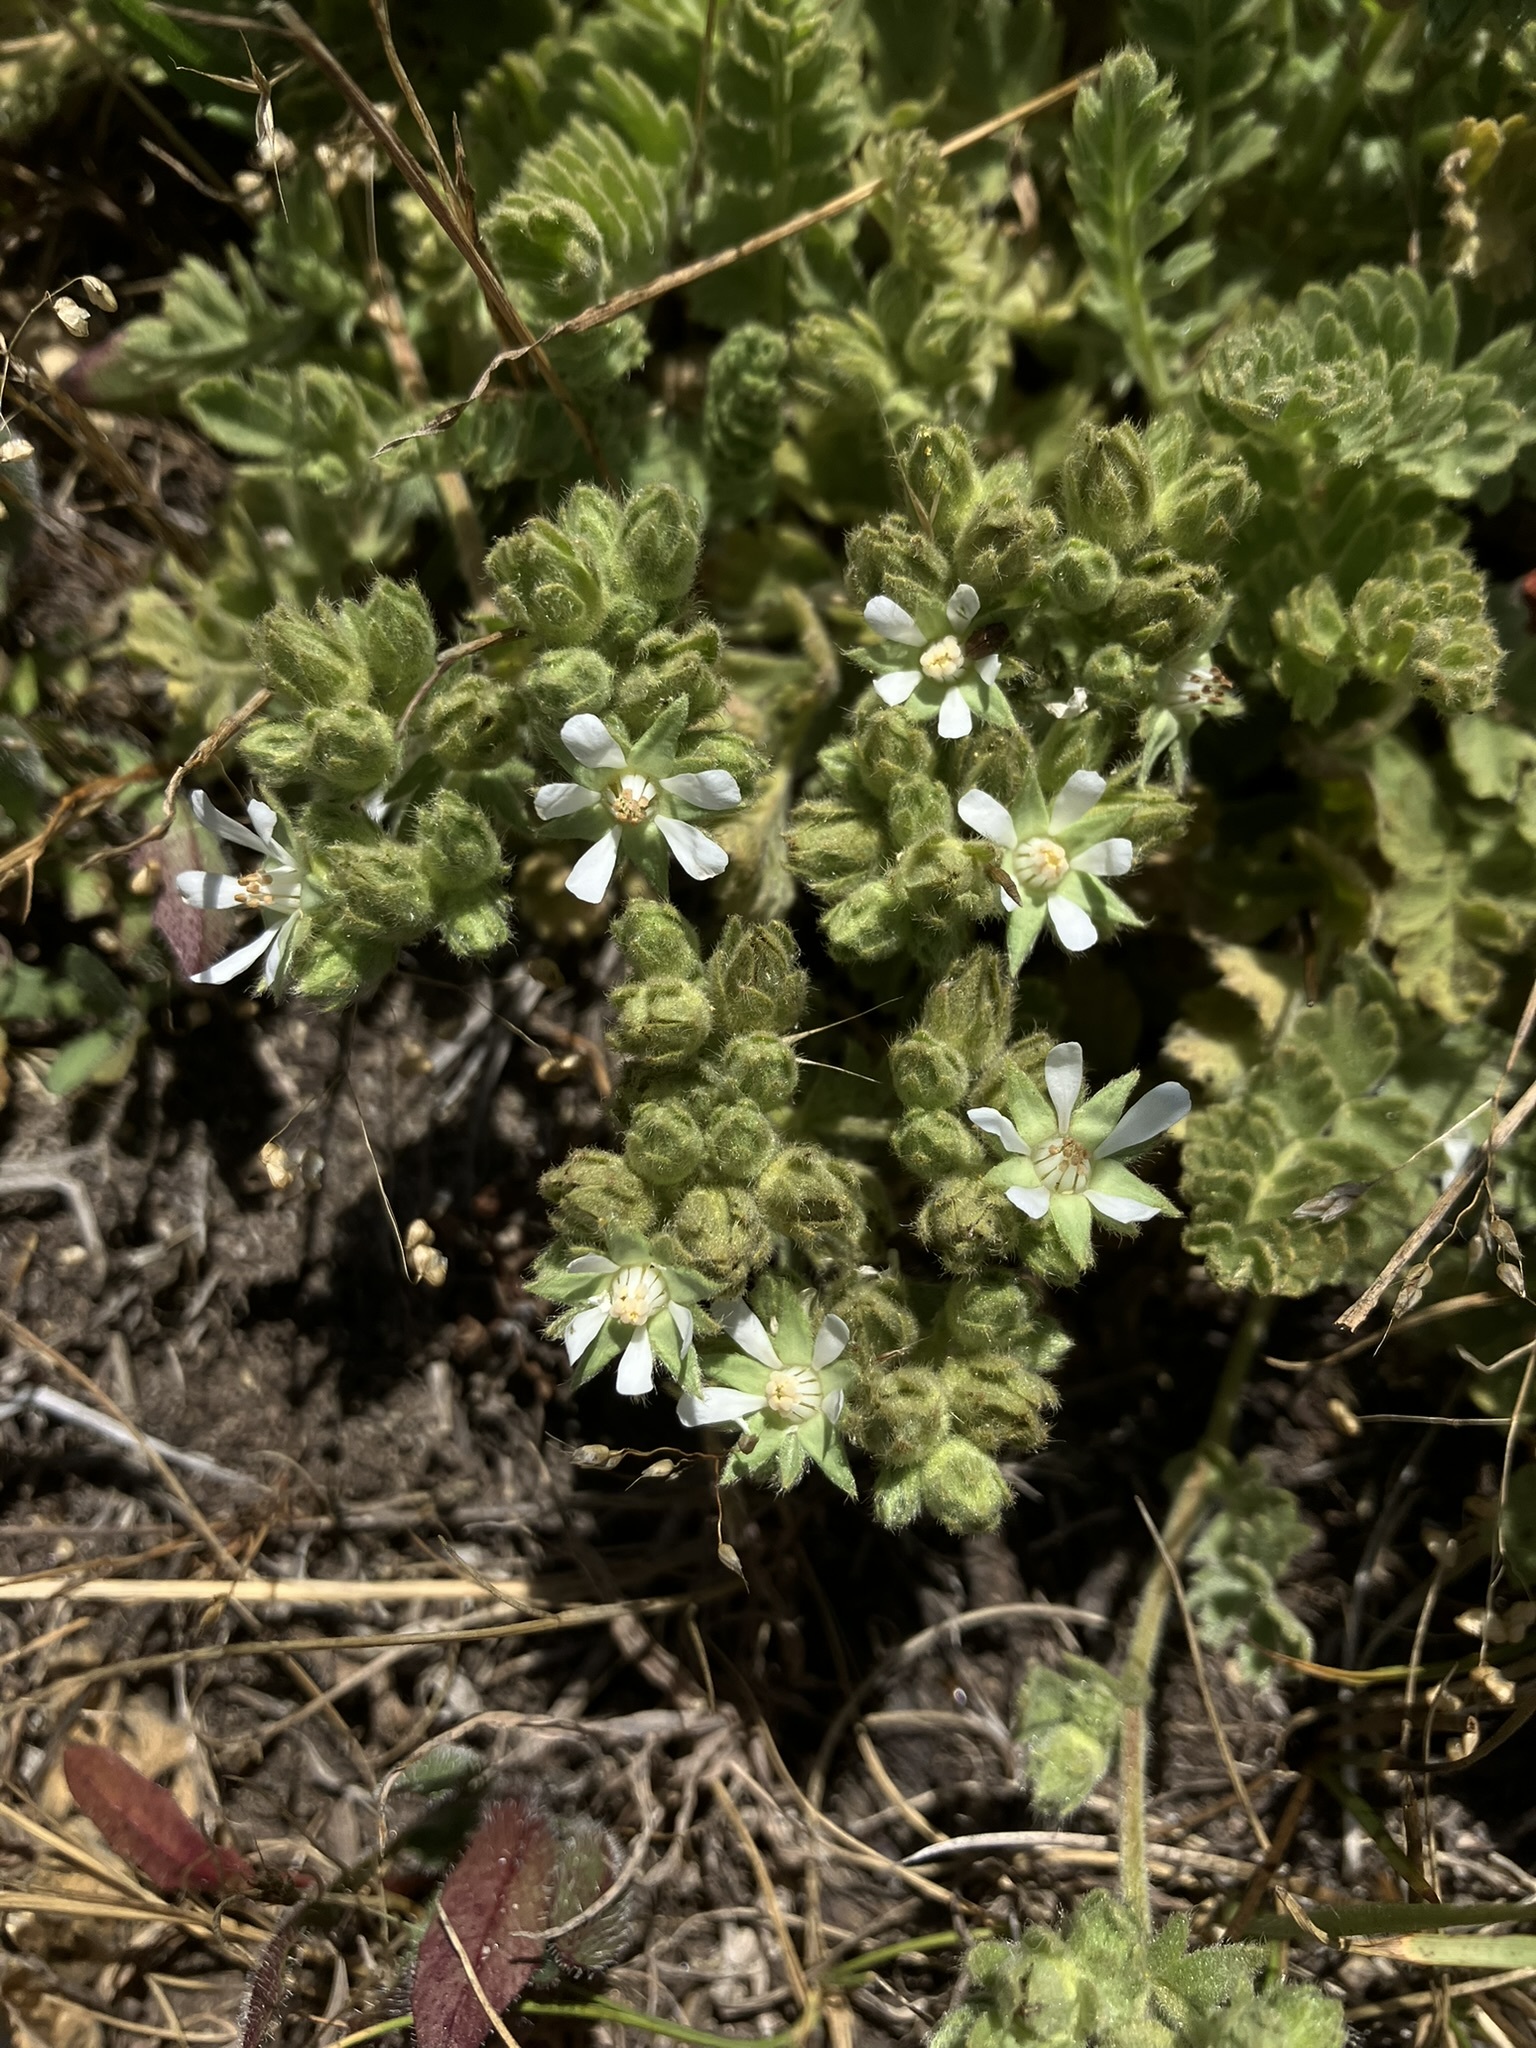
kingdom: Plantae
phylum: Tracheophyta
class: Magnoliopsida
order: Rosales
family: Rosaceae
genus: Potentilla
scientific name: Potentilla marinensis
